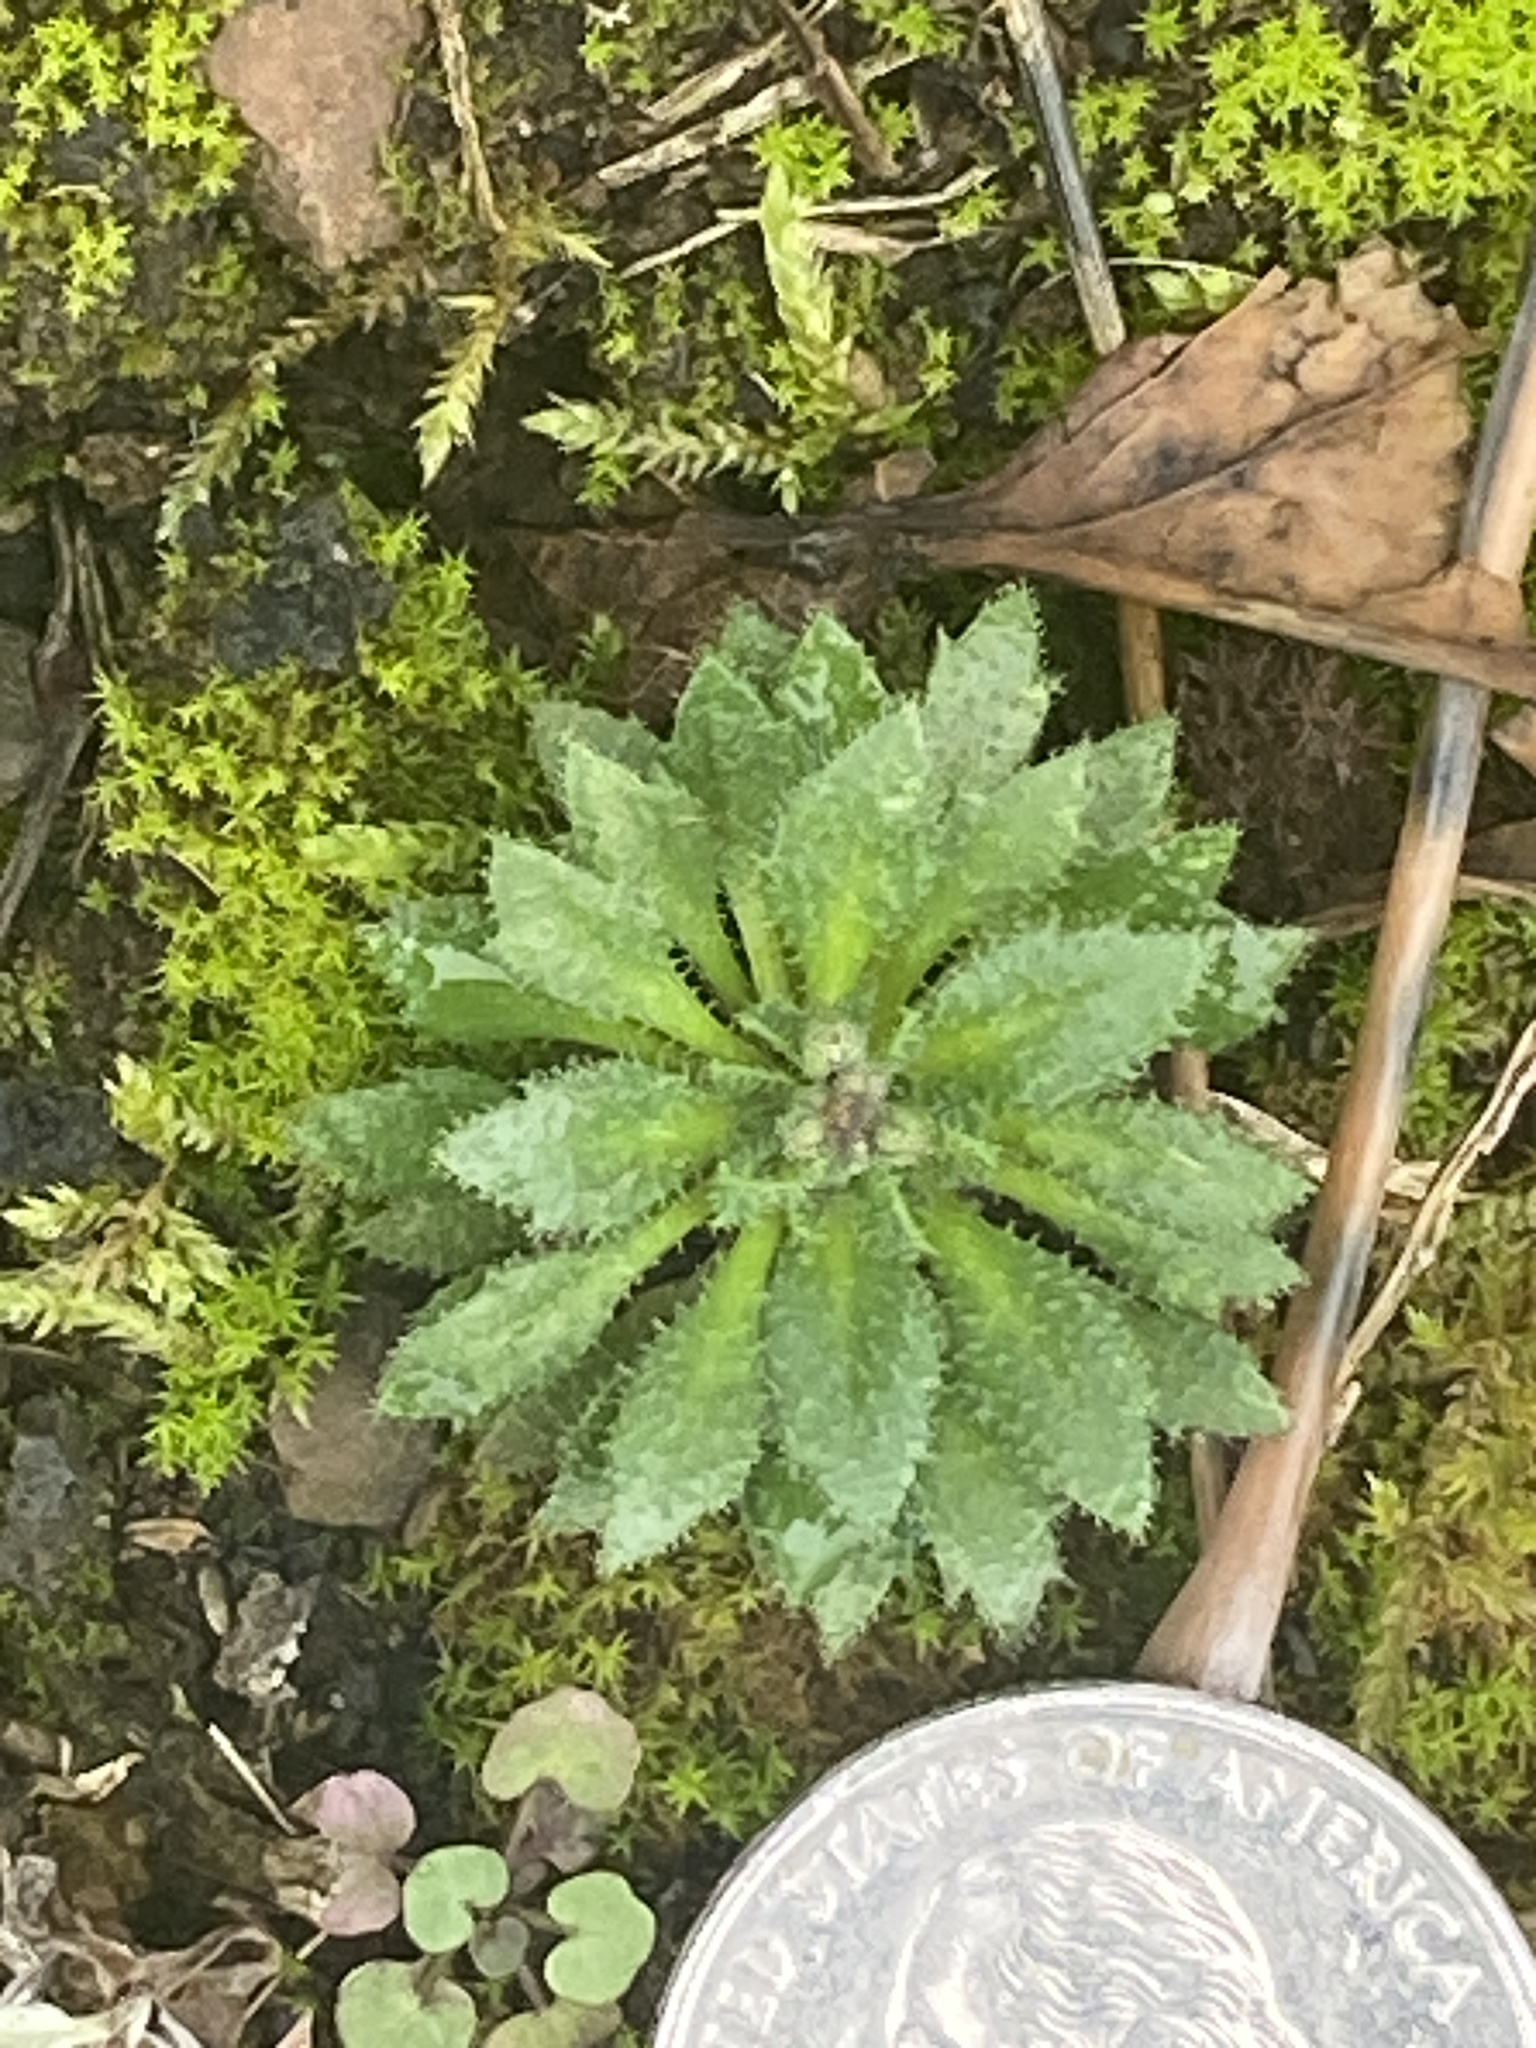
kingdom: Plantae
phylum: Tracheophyta
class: Magnoliopsida
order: Brassicales
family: Brassicaceae
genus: Draba
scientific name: Draba verna
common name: Spring draba
